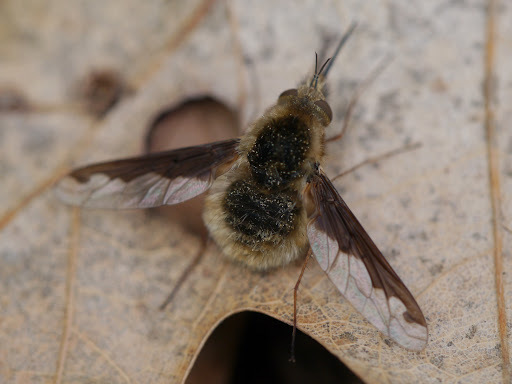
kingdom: Animalia
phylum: Arthropoda
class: Insecta
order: Diptera
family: Bombyliidae
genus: Bombylius
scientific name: Bombylius major
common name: Bee fly
